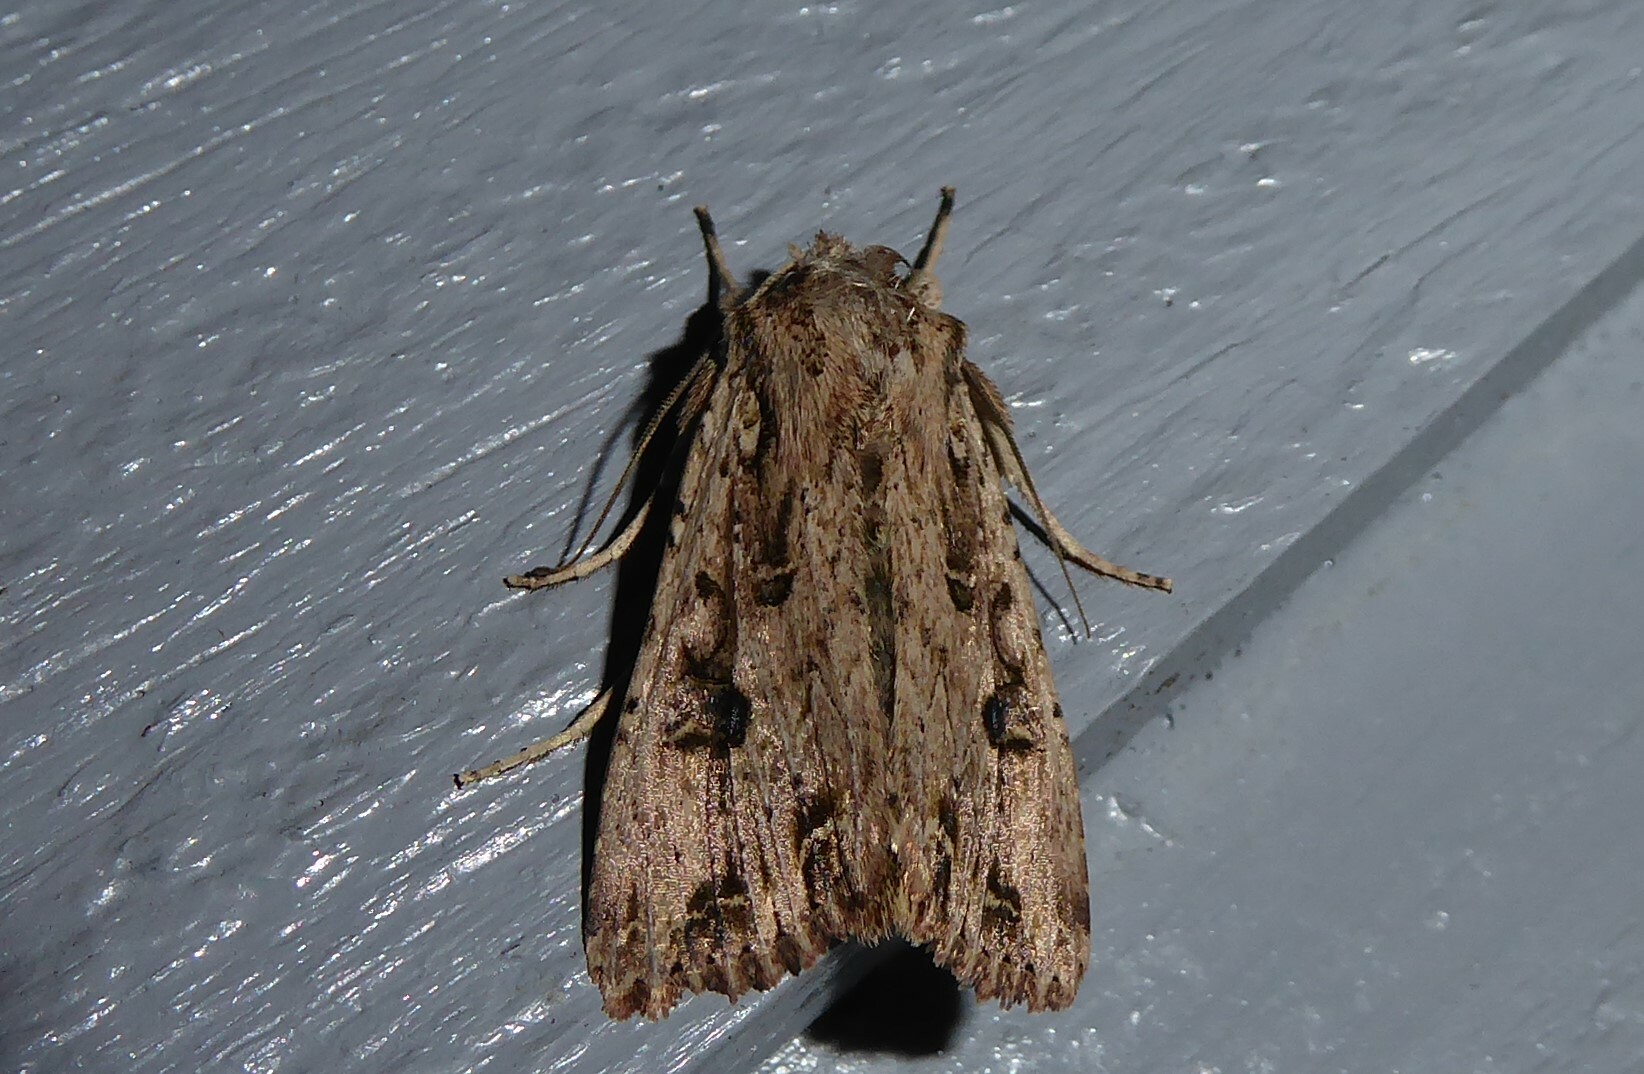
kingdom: Animalia
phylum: Arthropoda
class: Insecta
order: Lepidoptera
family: Noctuidae
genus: Ichneutica
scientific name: Ichneutica lignana
